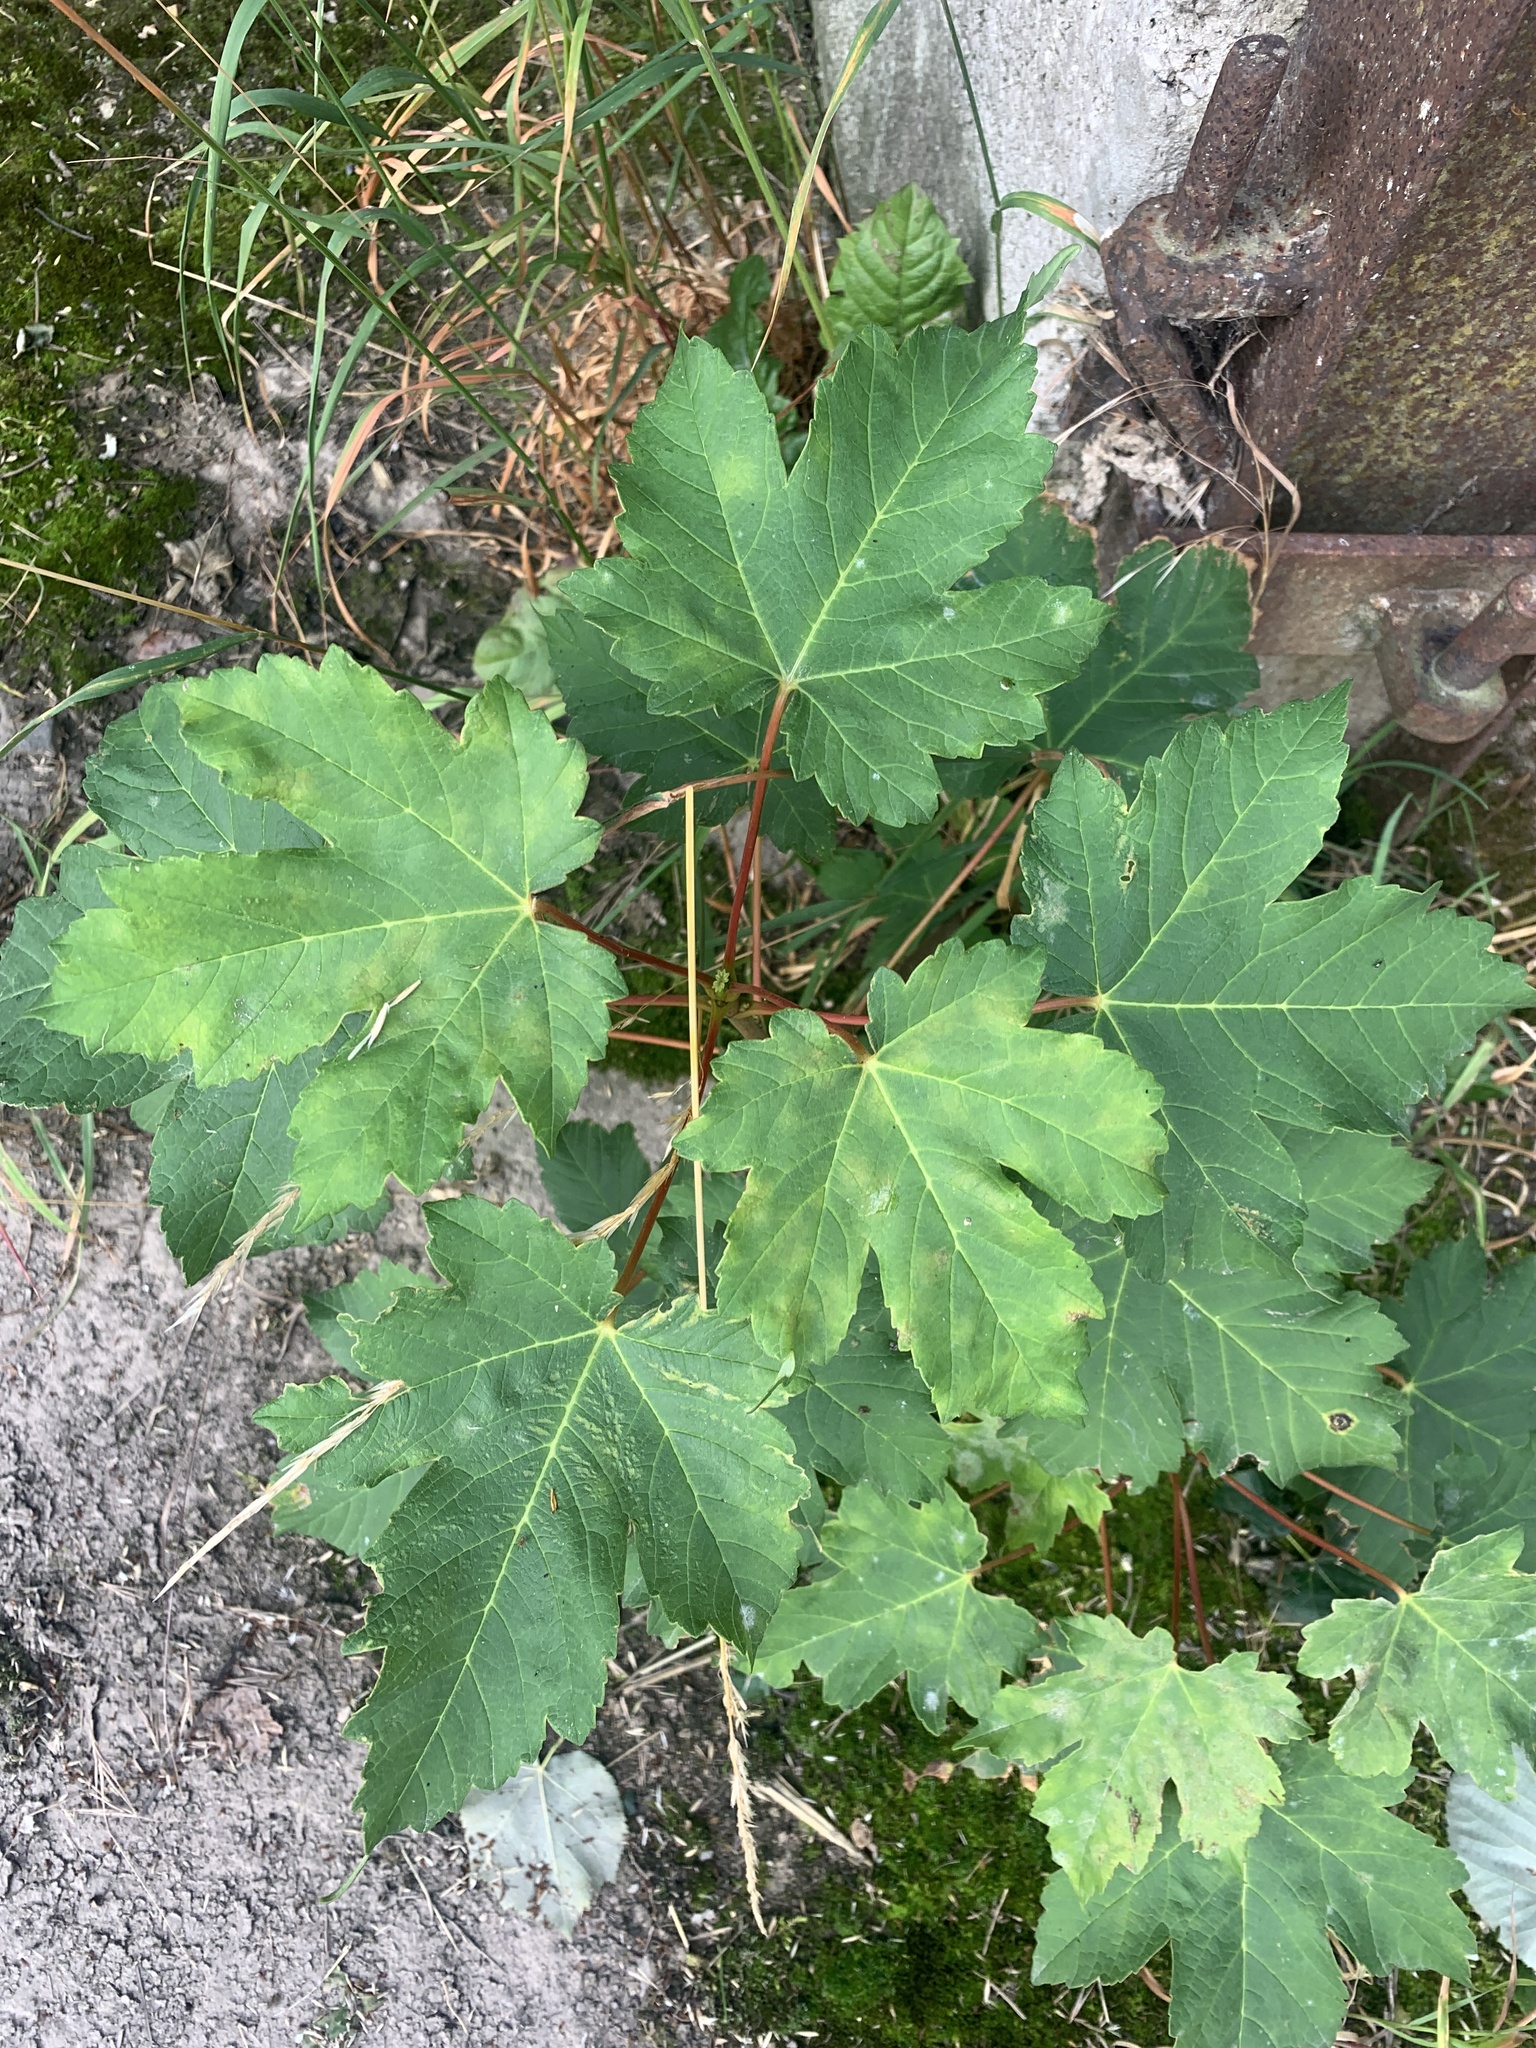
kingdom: Plantae
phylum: Tracheophyta
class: Magnoliopsida
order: Sapindales
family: Sapindaceae
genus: Acer
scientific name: Acer pseudoplatanus
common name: Sycamore
